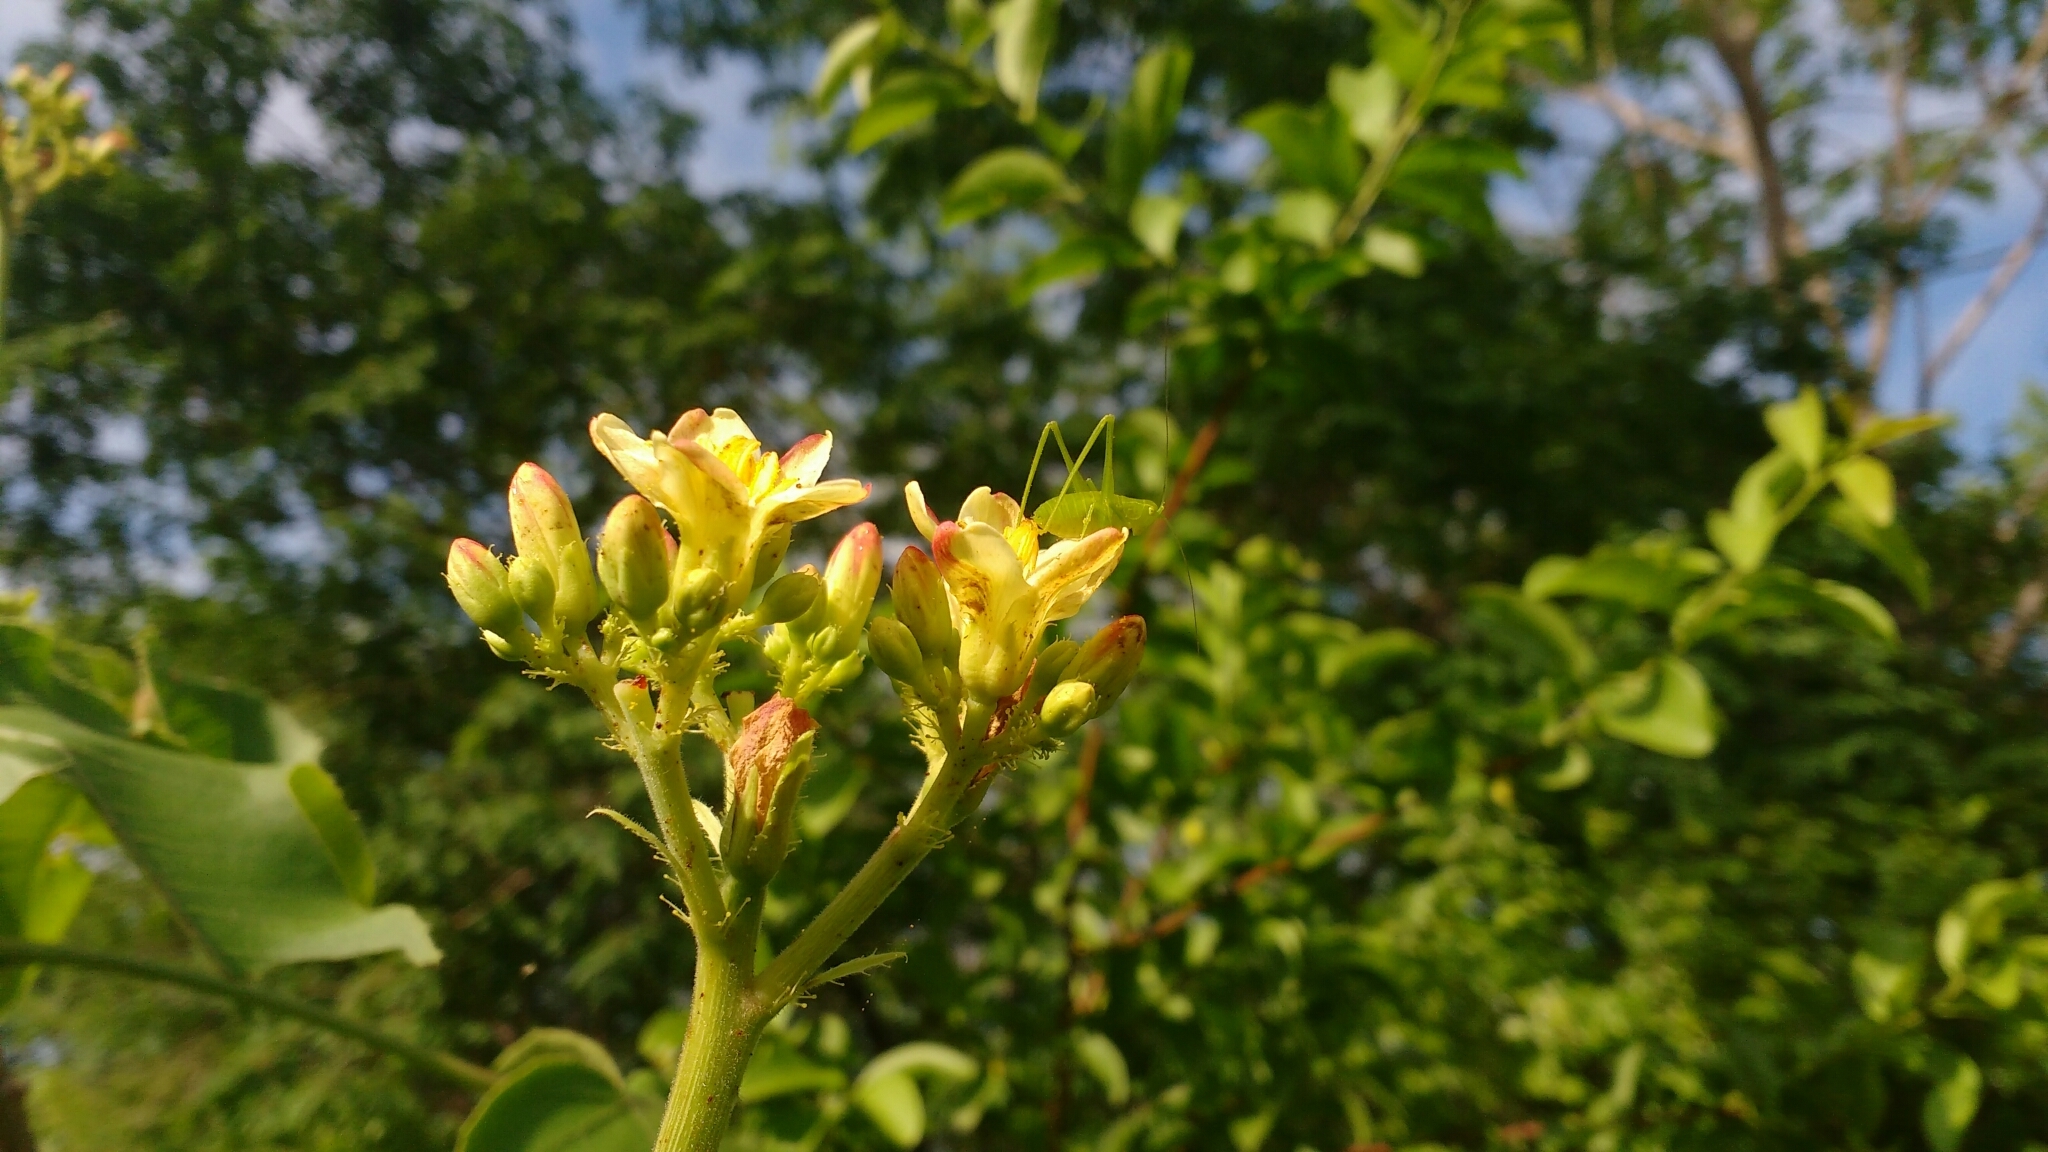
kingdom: Plantae
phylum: Tracheophyta
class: Magnoliopsida
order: Malpighiales
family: Euphorbiaceae
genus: Jatropha
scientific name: Jatropha mollissima
